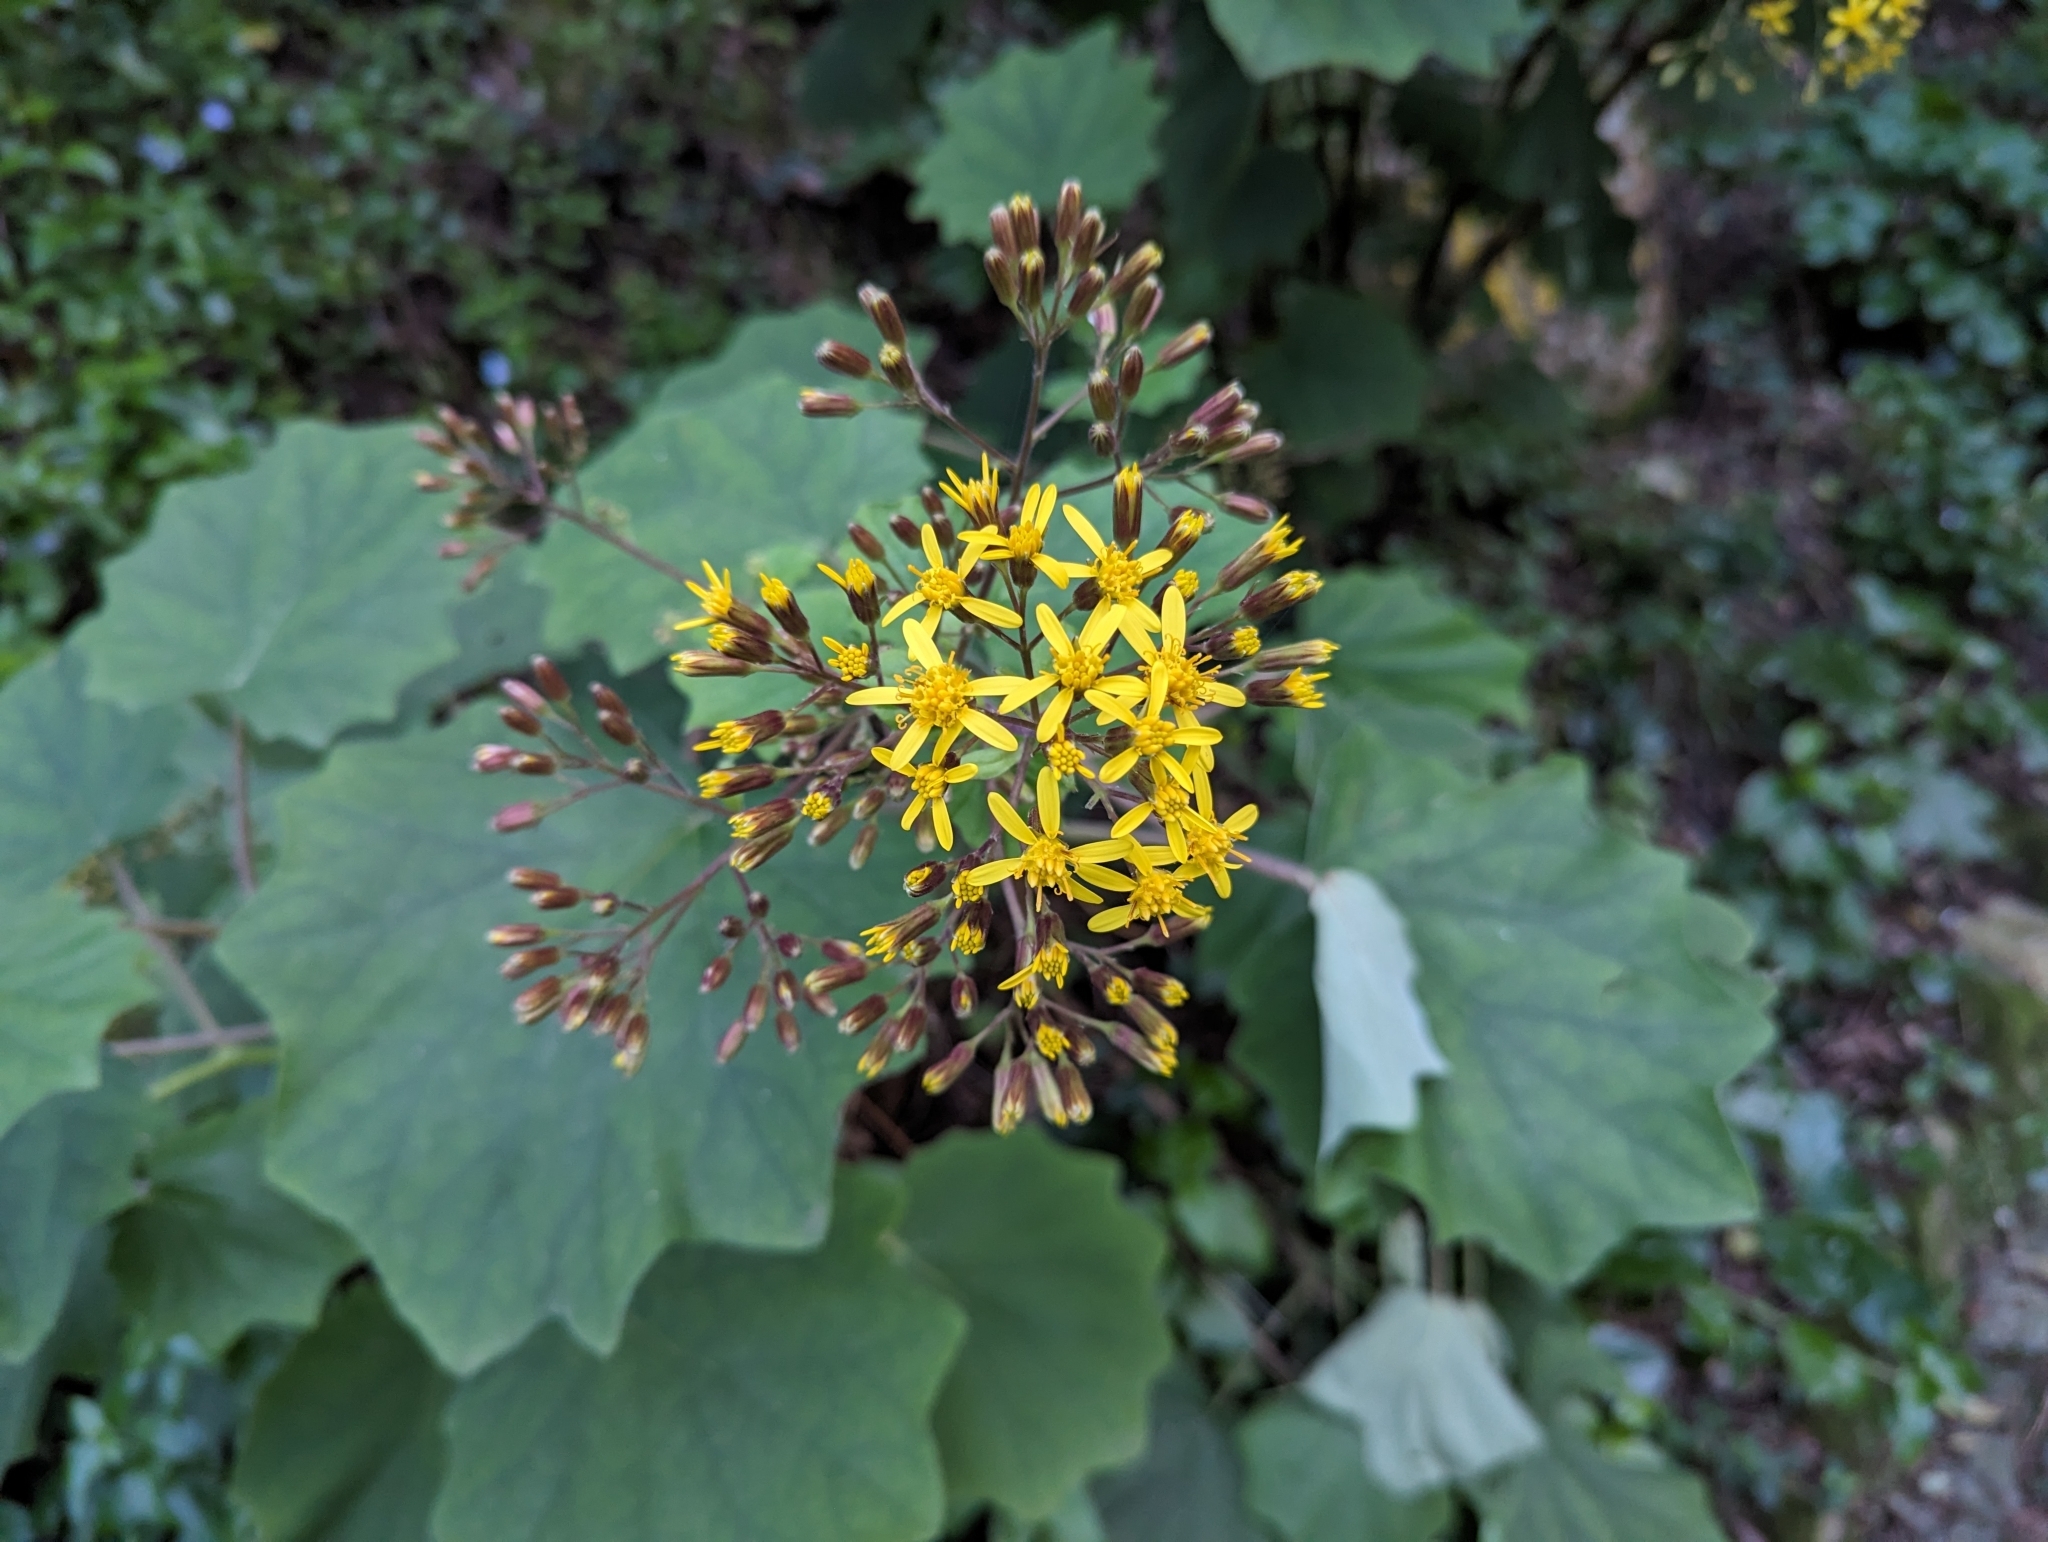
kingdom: Plantae
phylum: Tracheophyta
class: Magnoliopsida
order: Asterales
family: Asteraceae
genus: Roldana
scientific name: Roldana petasitis
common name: California-geranium
